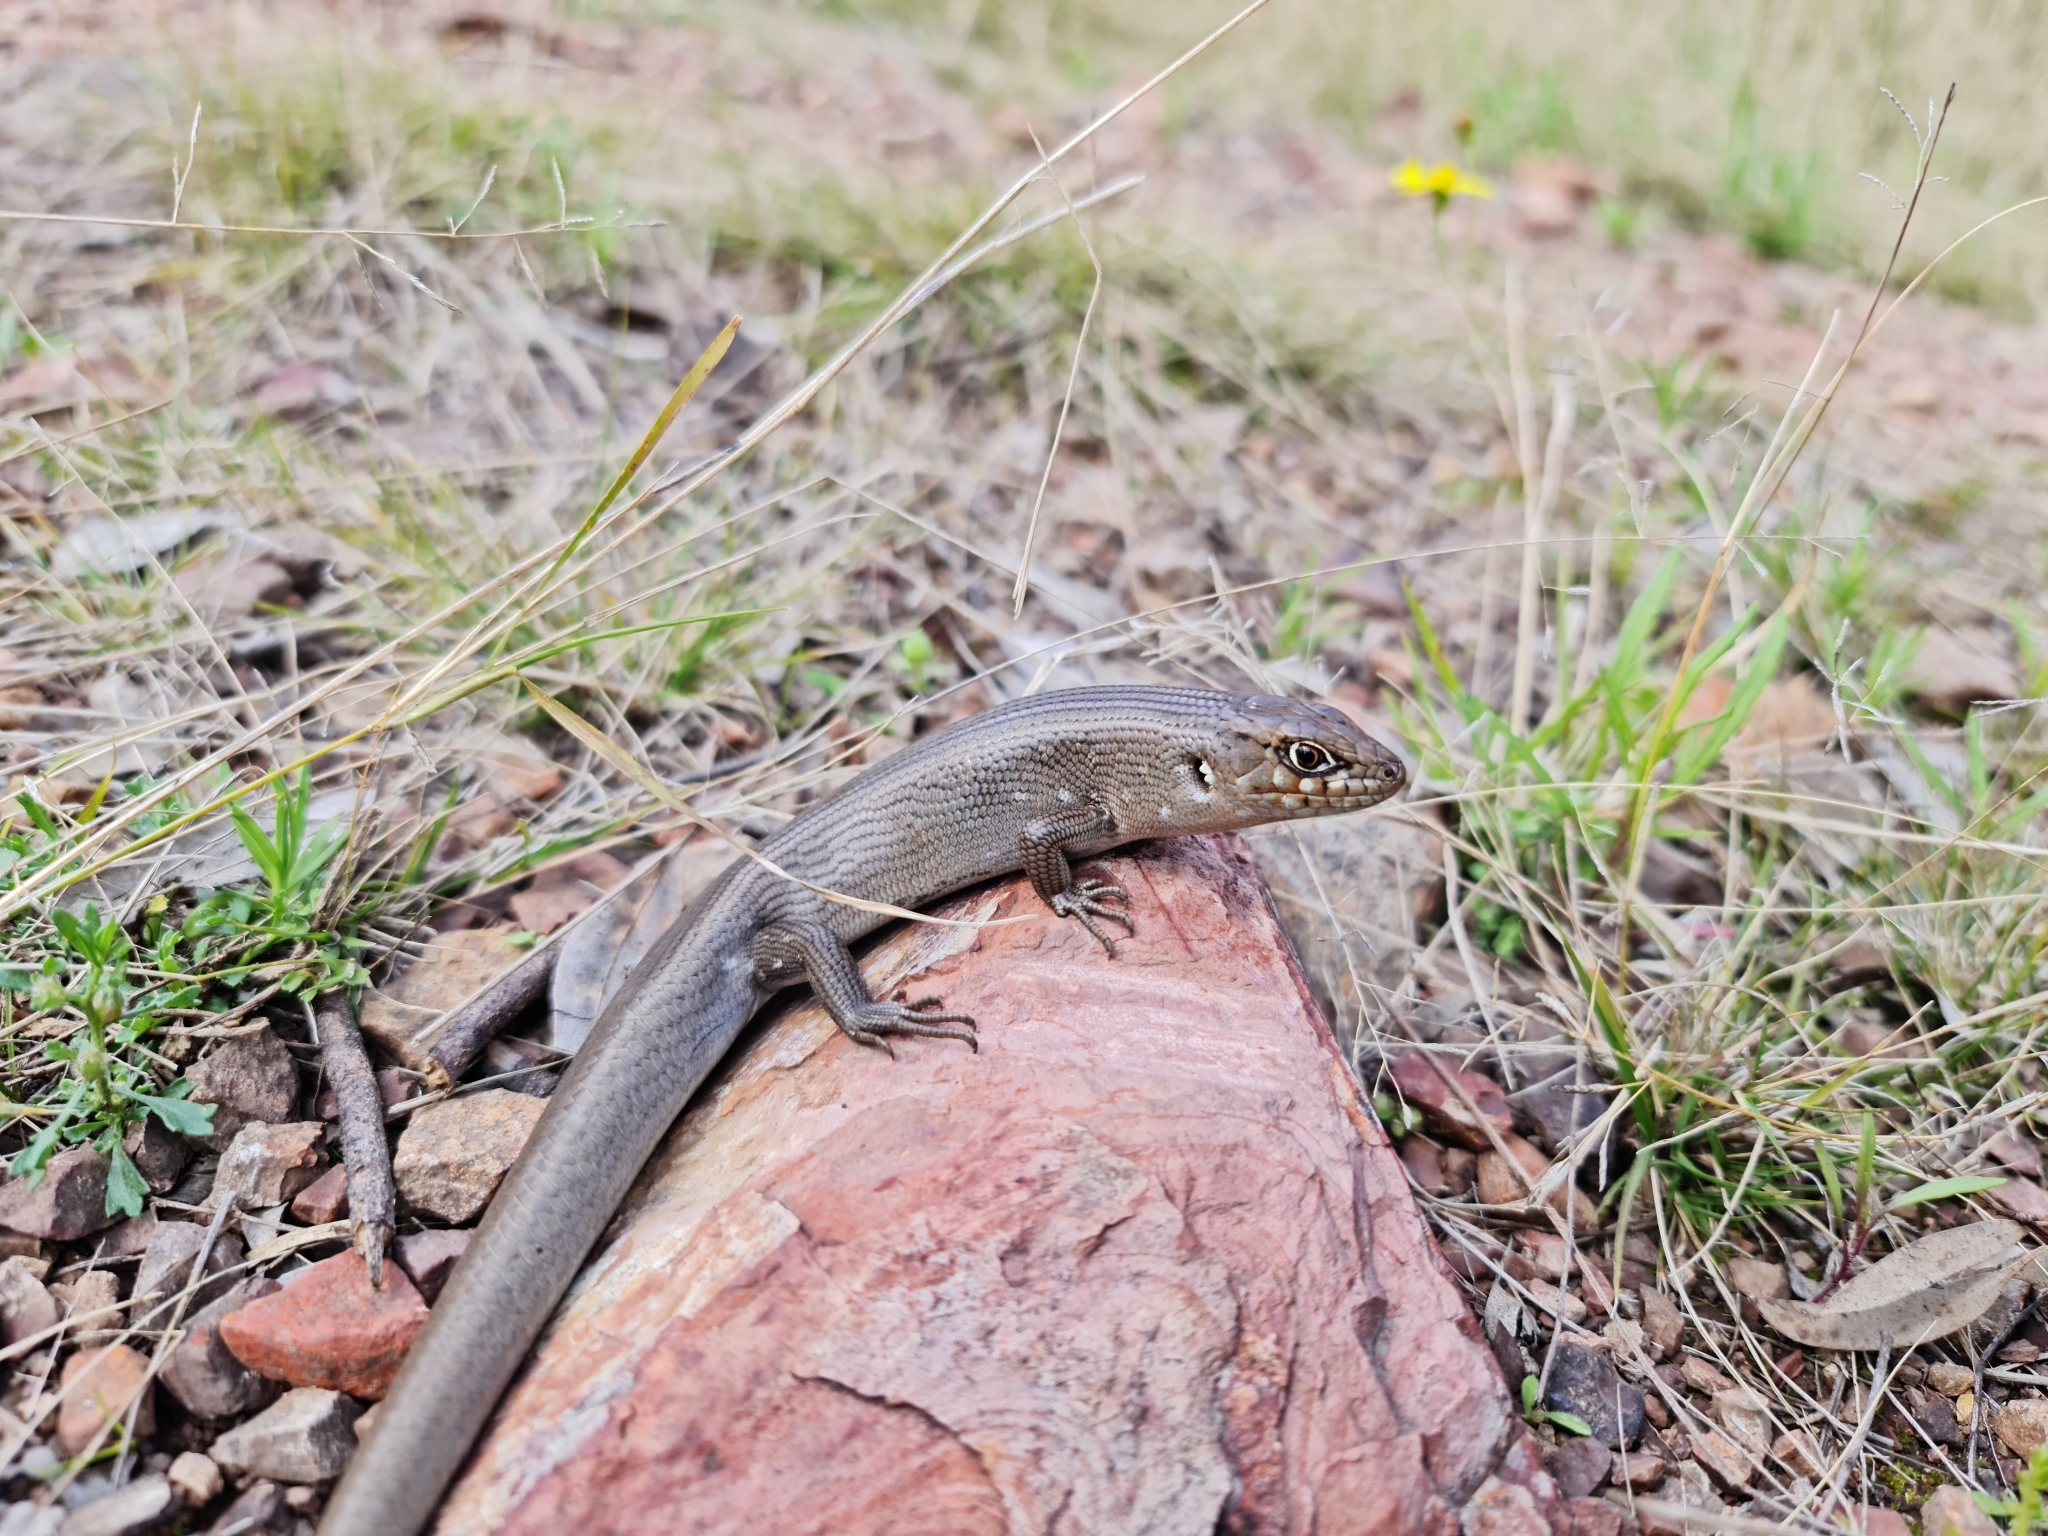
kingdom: Animalia
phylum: Chordata
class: Squamata
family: Scincidae
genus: Liopholis
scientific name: Liopholis modesta
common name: Eastern ranges rock-skink
